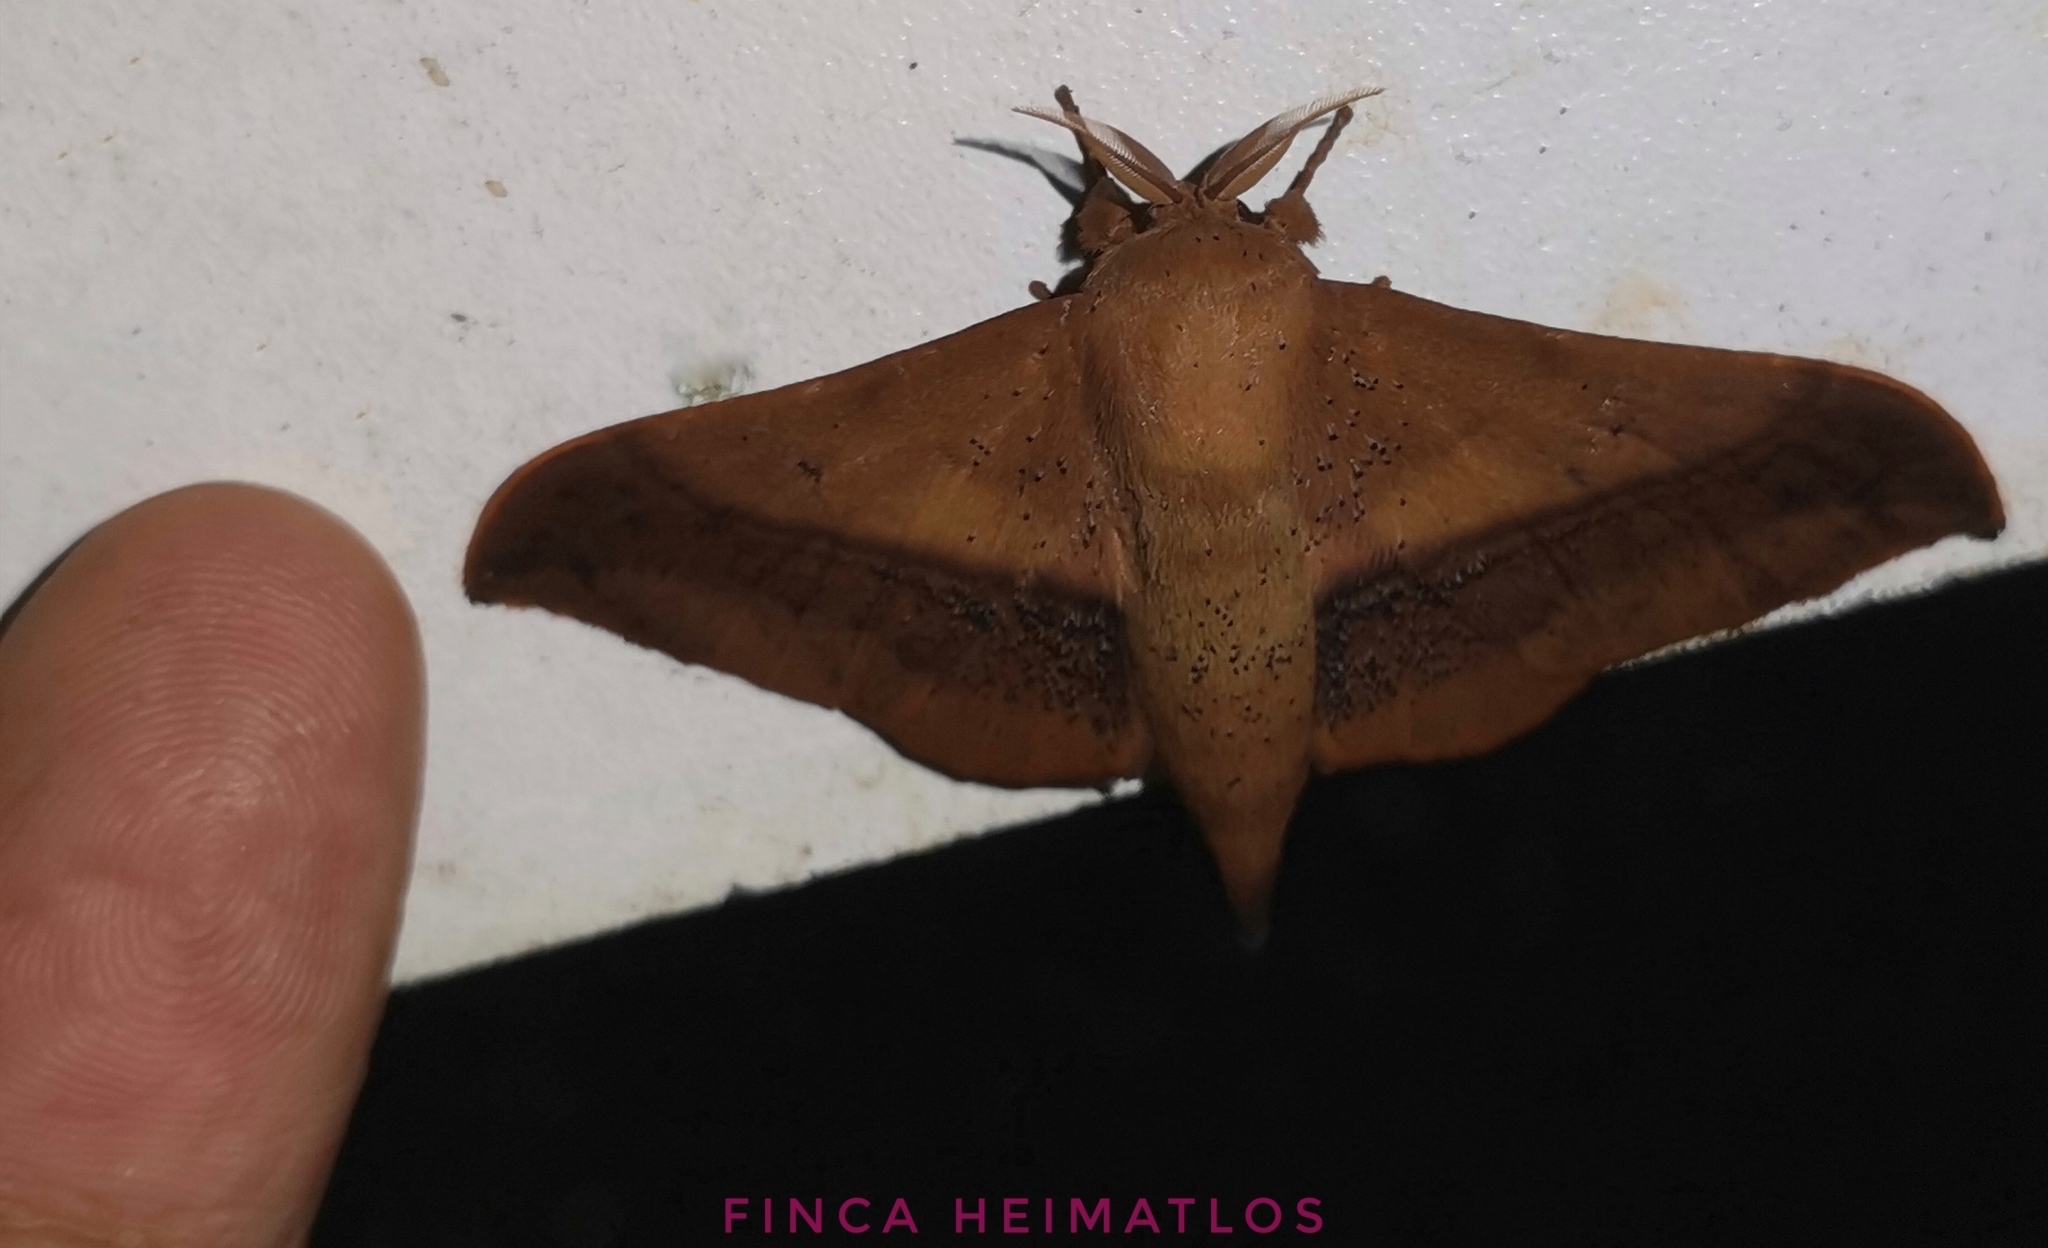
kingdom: Animalia
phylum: Arthropoda
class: Insecta
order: Lepidoptera
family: Mimallonidae
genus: Cicinnus
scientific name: Cicinnus joanna
